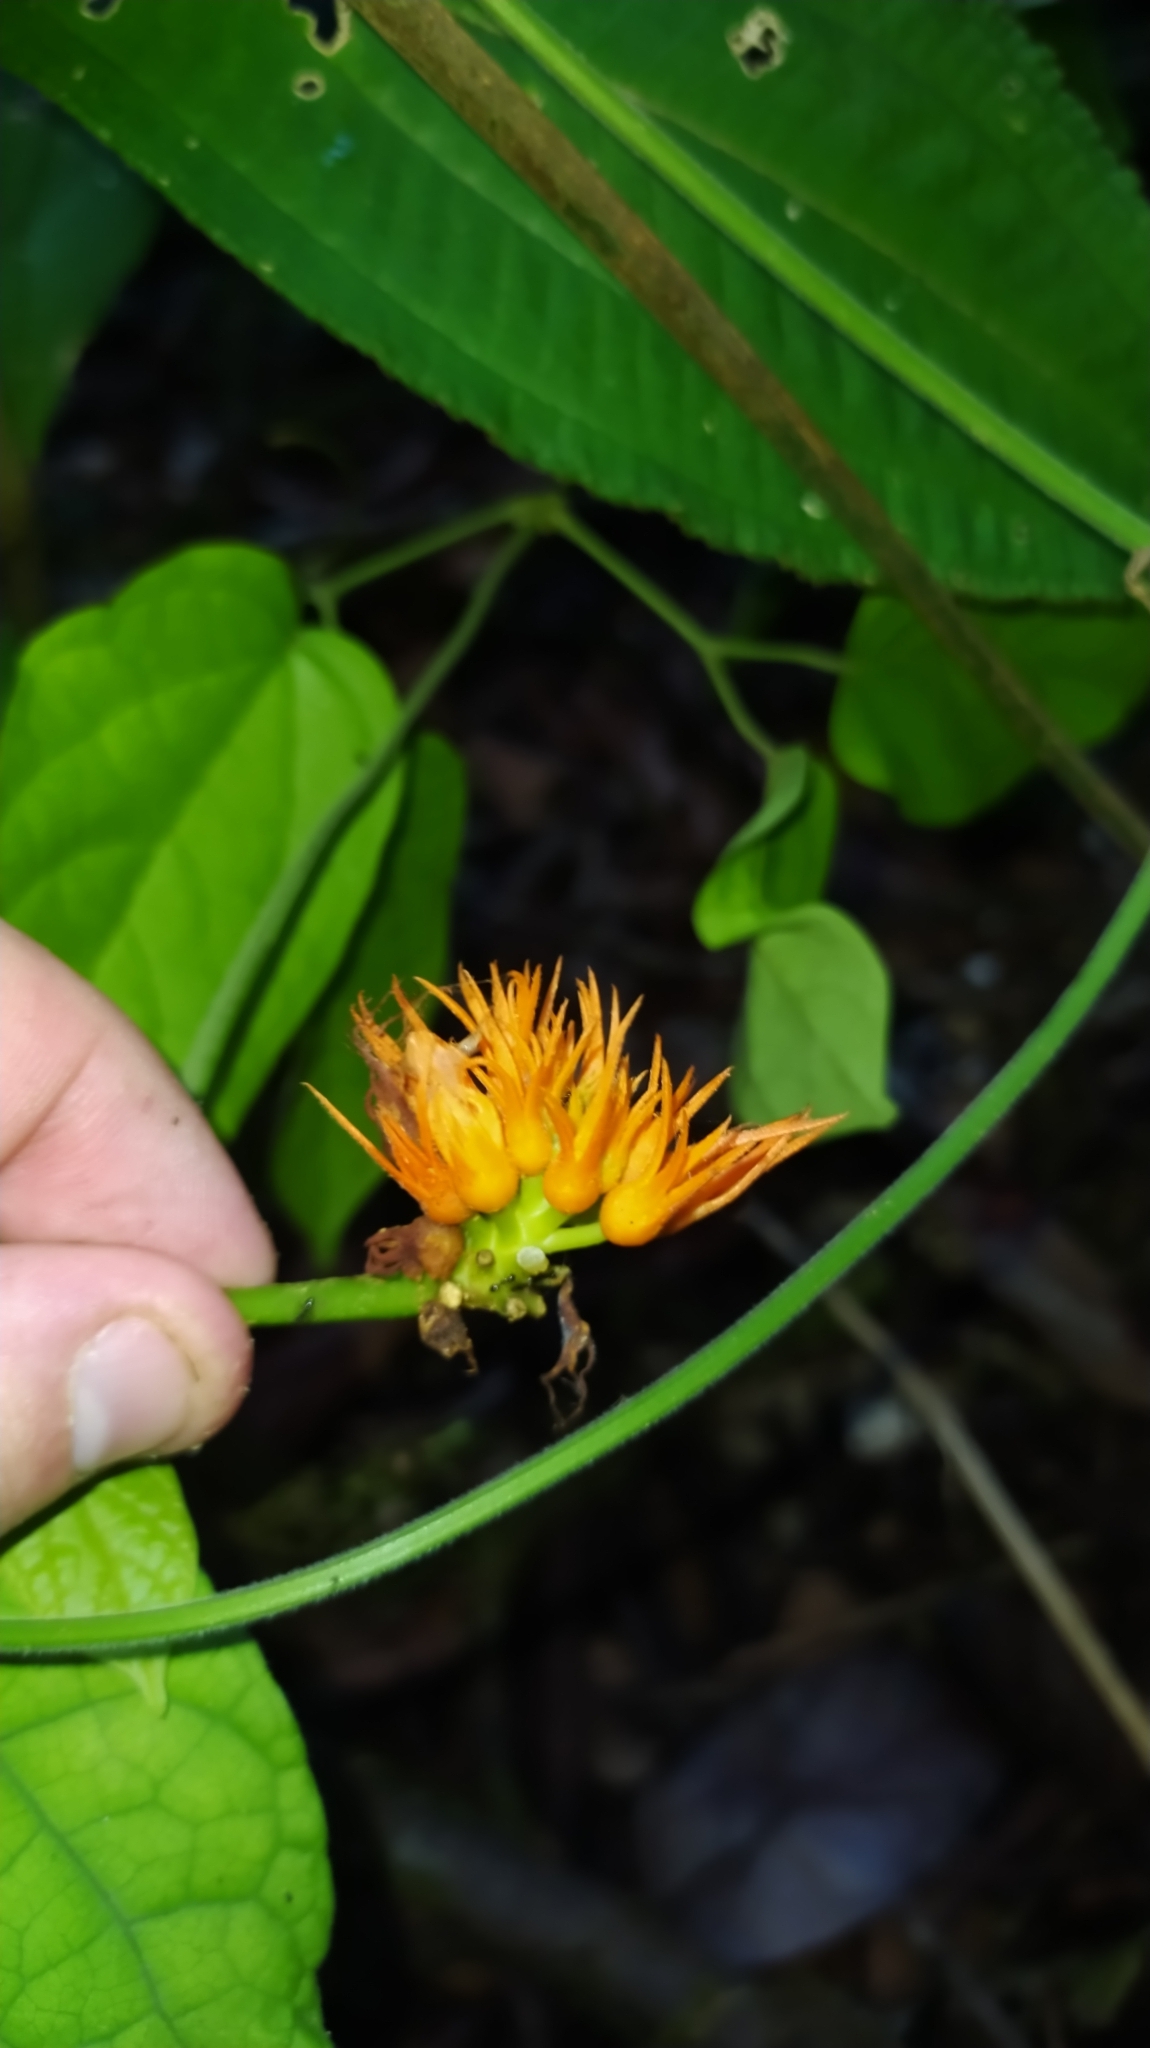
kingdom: Plantae
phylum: Tracheophyta
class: Magnoliopsida
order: Cucurbitales
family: Cucurbitaceae
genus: Gurania
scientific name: Gurania reticulata
